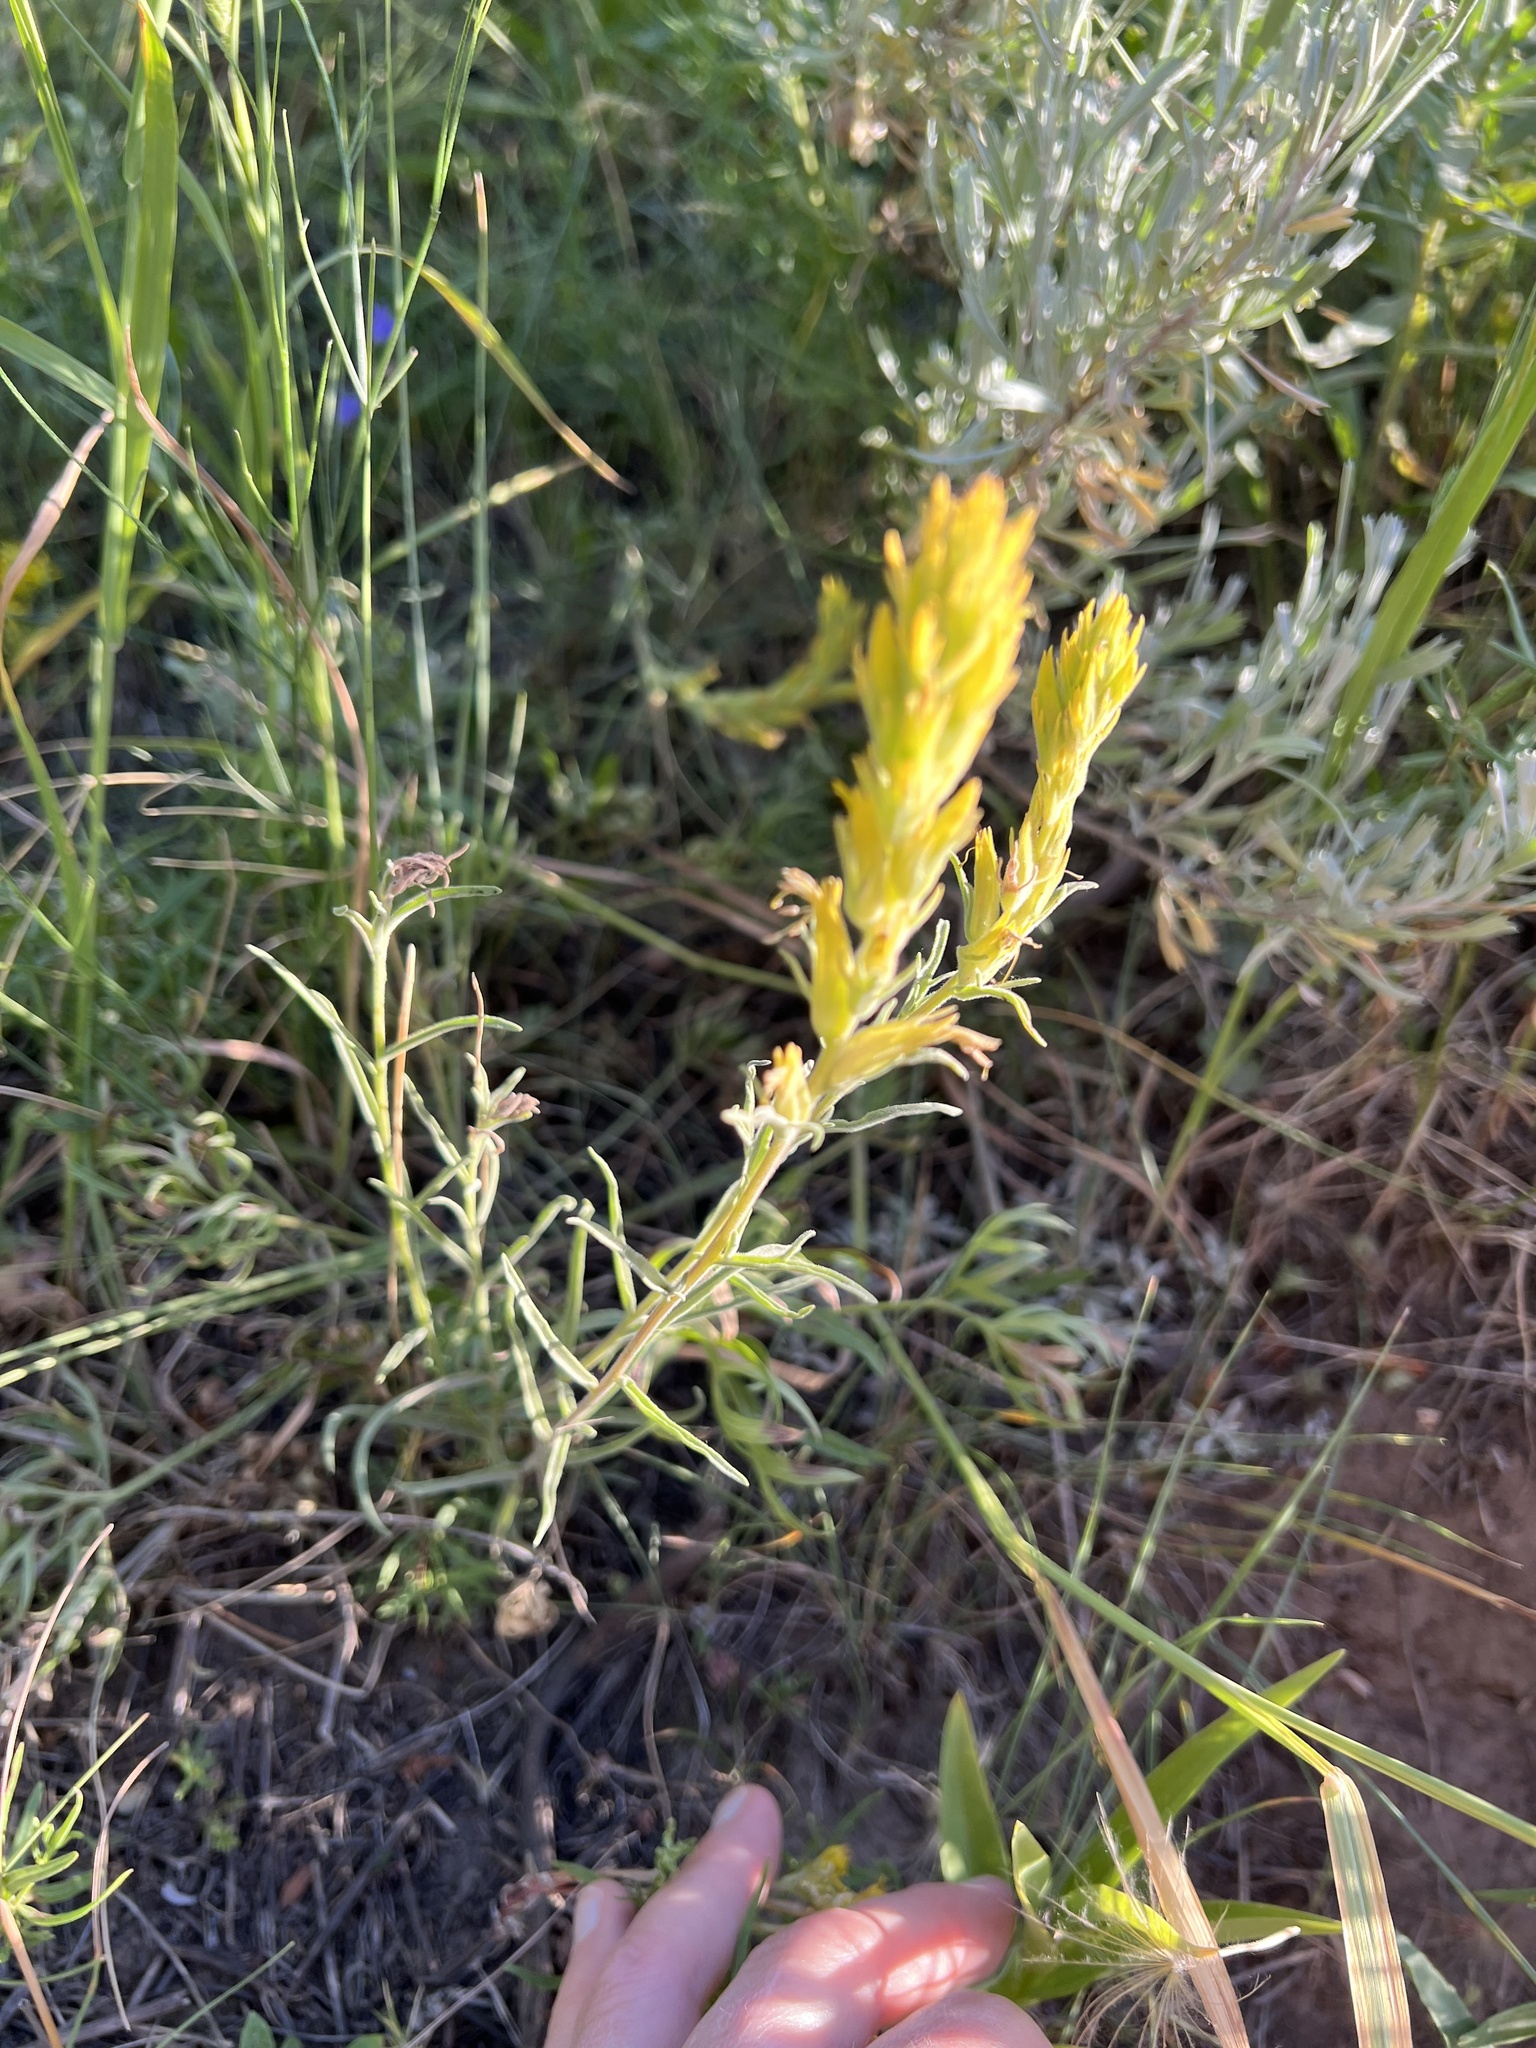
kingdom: Plantae
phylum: Tracheophyta
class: Magnoliopsida
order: Lamiales
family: Orobanchaceae
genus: Castilleja
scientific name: Castilleja flava
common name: Yellow paintbrush
